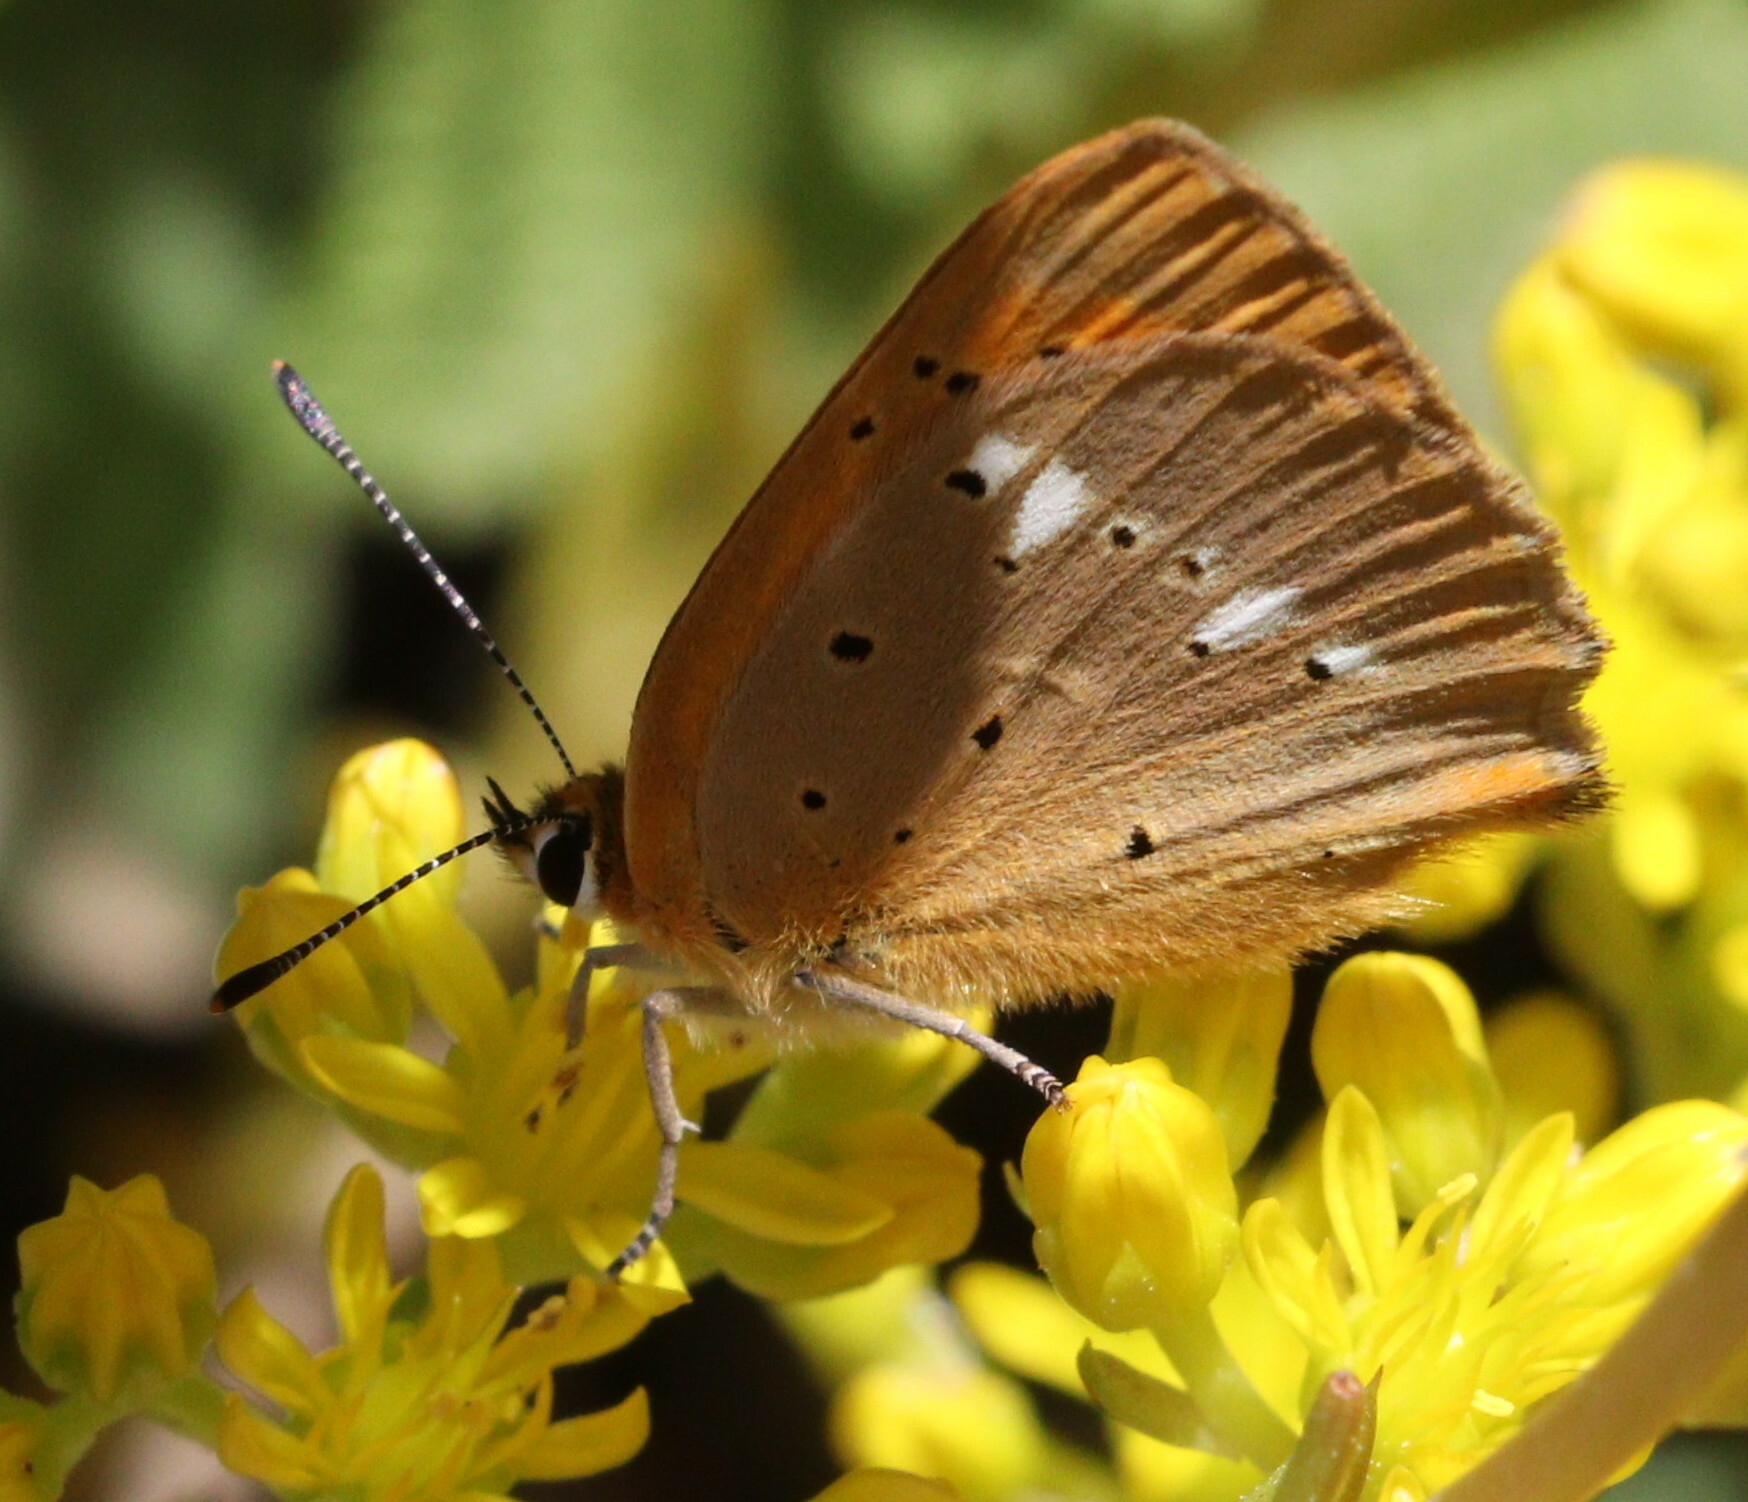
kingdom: Animalia
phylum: Arthropoda
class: Insecta
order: Lepidoptera
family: Lycaenidae
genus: Lycaena
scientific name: Lycaena virgaureae
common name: Scarce copper
